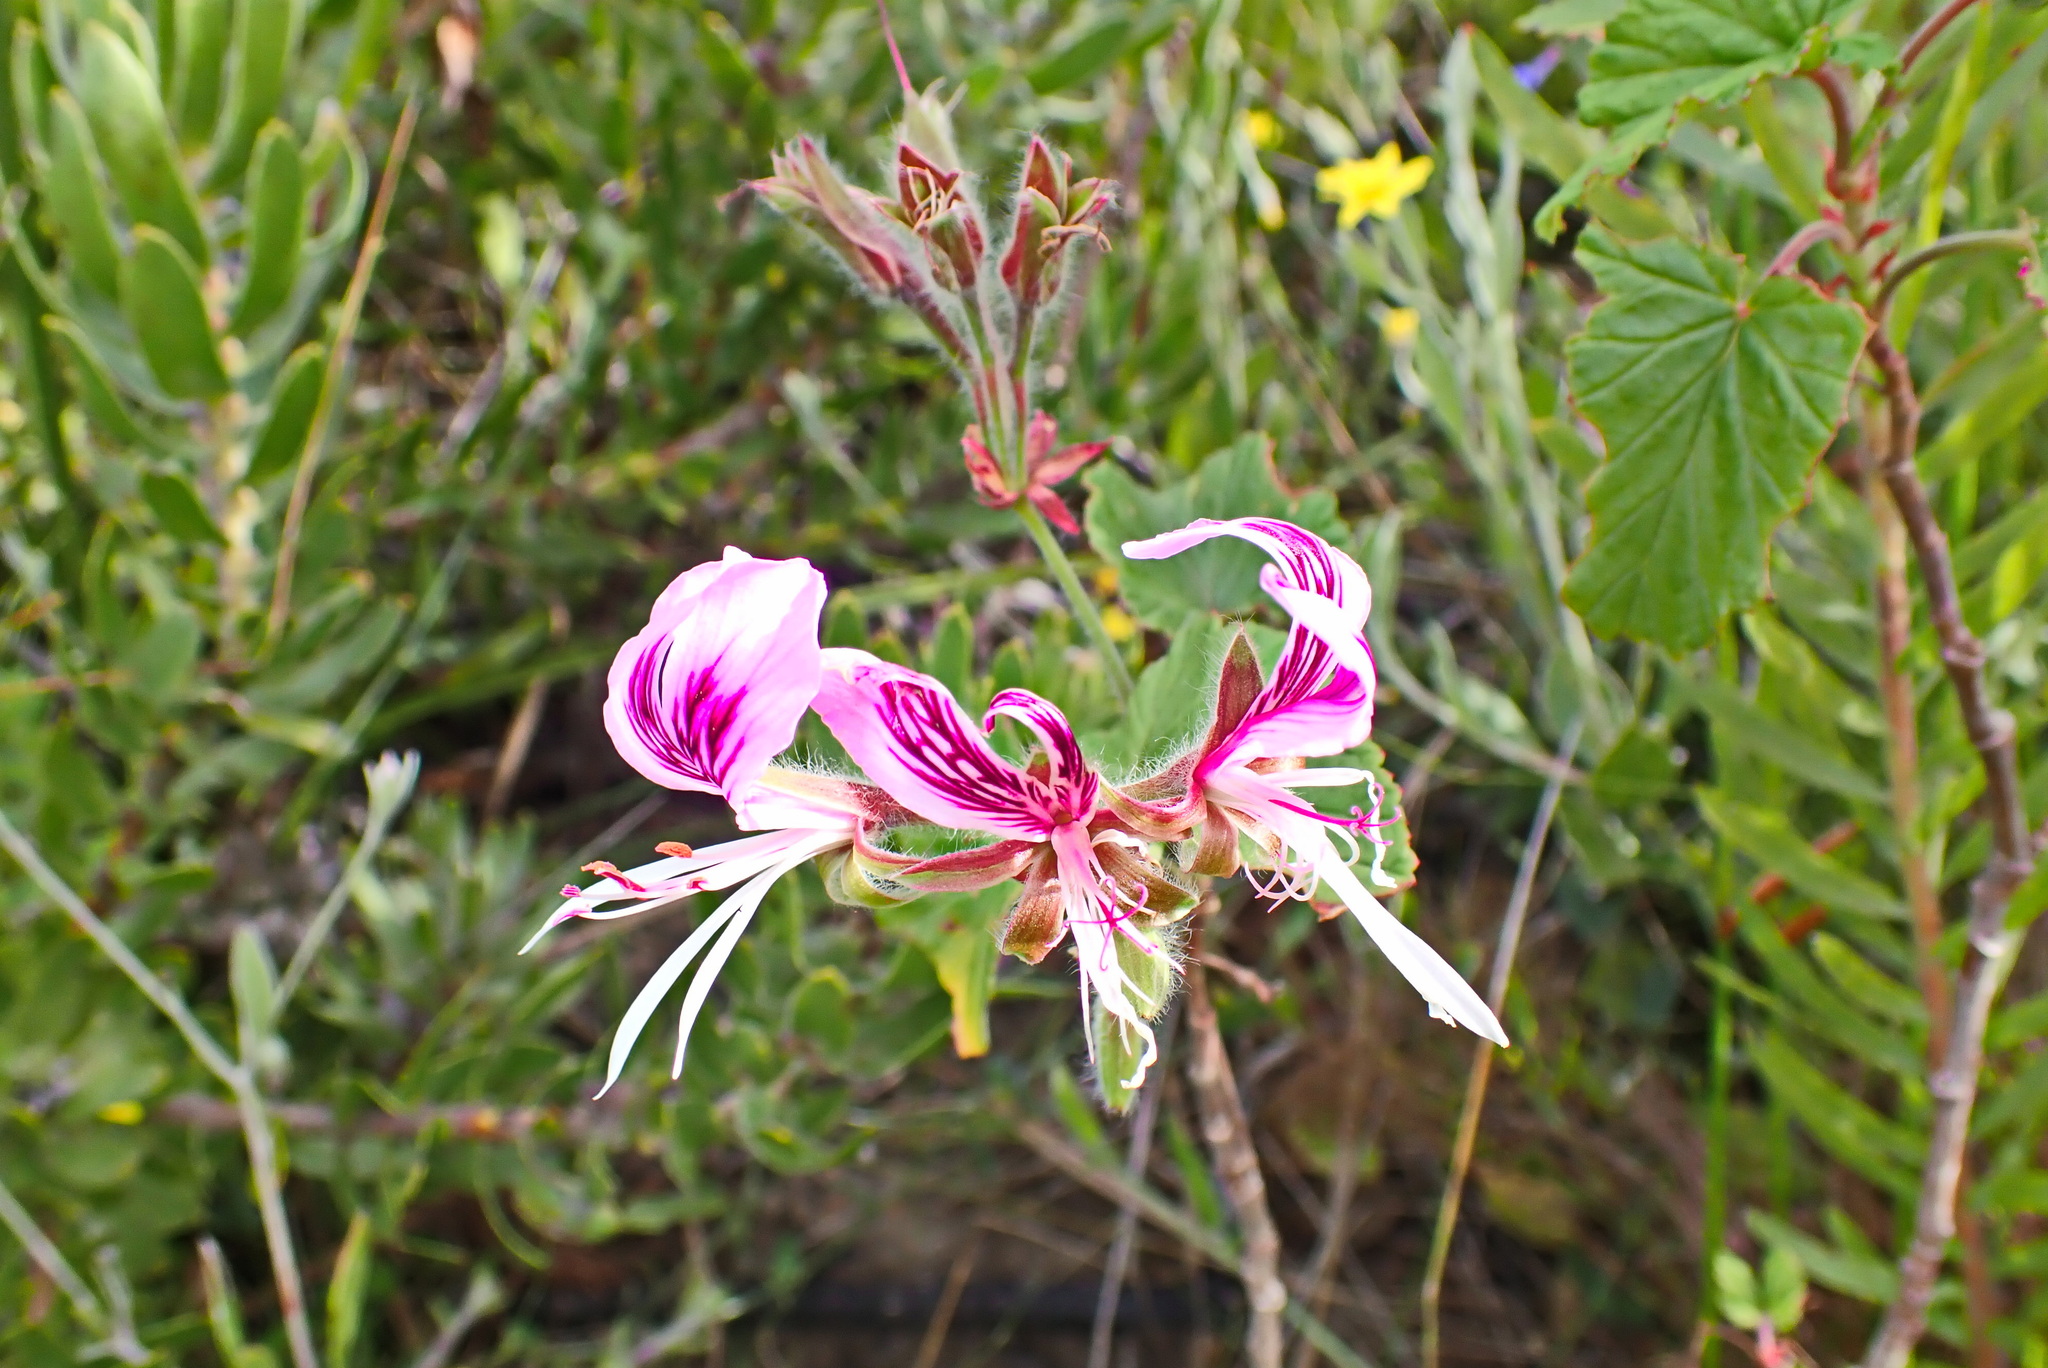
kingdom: Plantae
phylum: Tracheophyta
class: Magnoliopsida
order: Geraniales
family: Geraniaceae
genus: Pelargonium
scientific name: Pelargonium cordifolium
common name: Heart-leaf pelargonium
